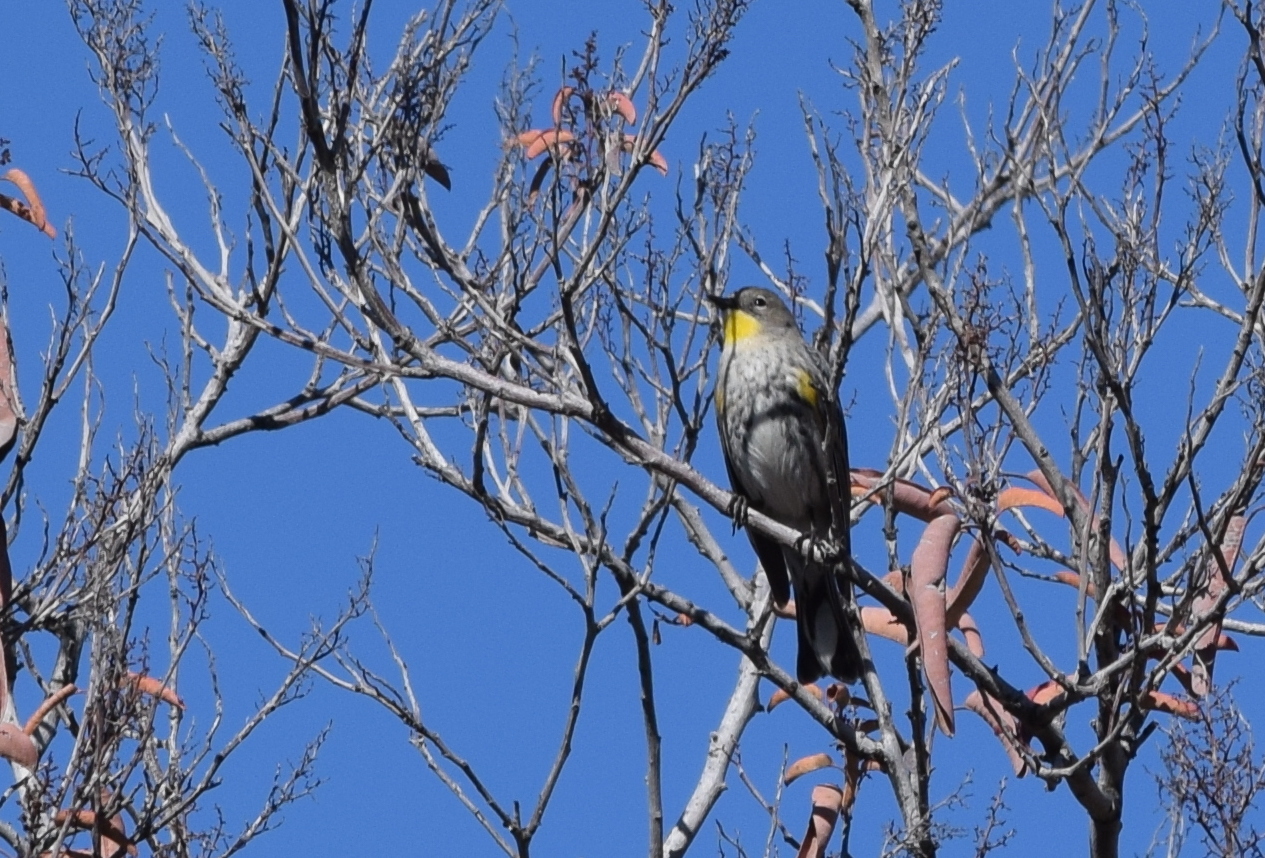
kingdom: Animalia
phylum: Chordata
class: Aves
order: Passeriformes
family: Parulidae
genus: Setophaga
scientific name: Setophaga coronata
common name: Myrtle warbler
